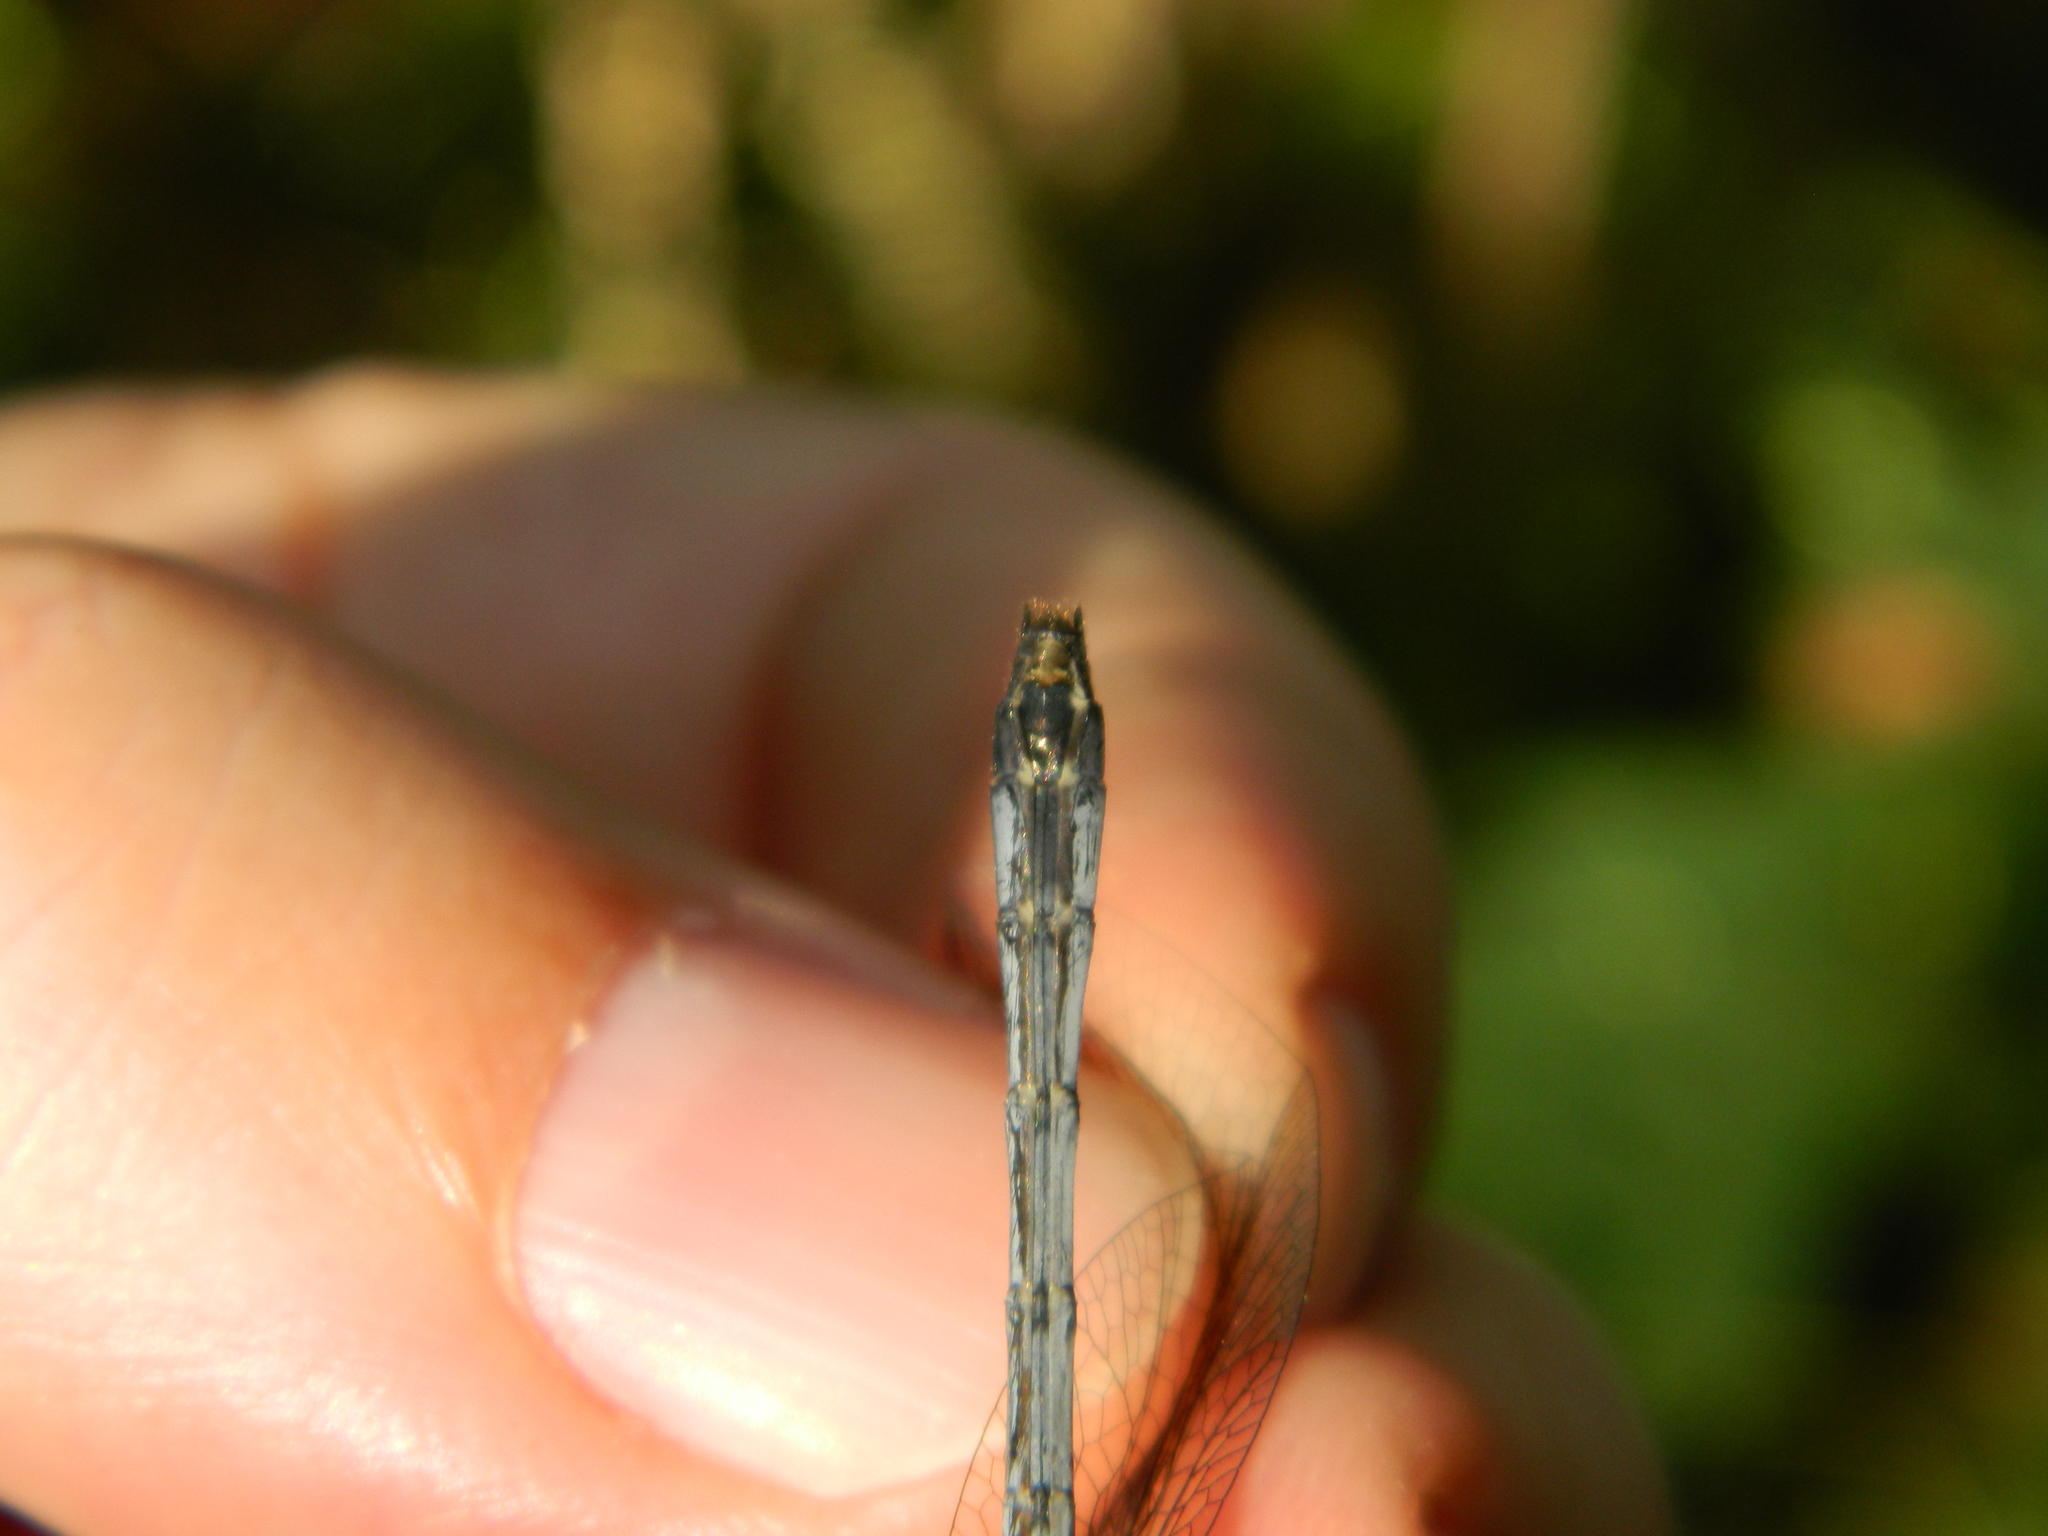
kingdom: Animalia
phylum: Arthropoda
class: Insecta
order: Odonata
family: Libellulidae
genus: Micrathyria
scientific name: Micrathyria didyma
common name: Three-striped dasher
